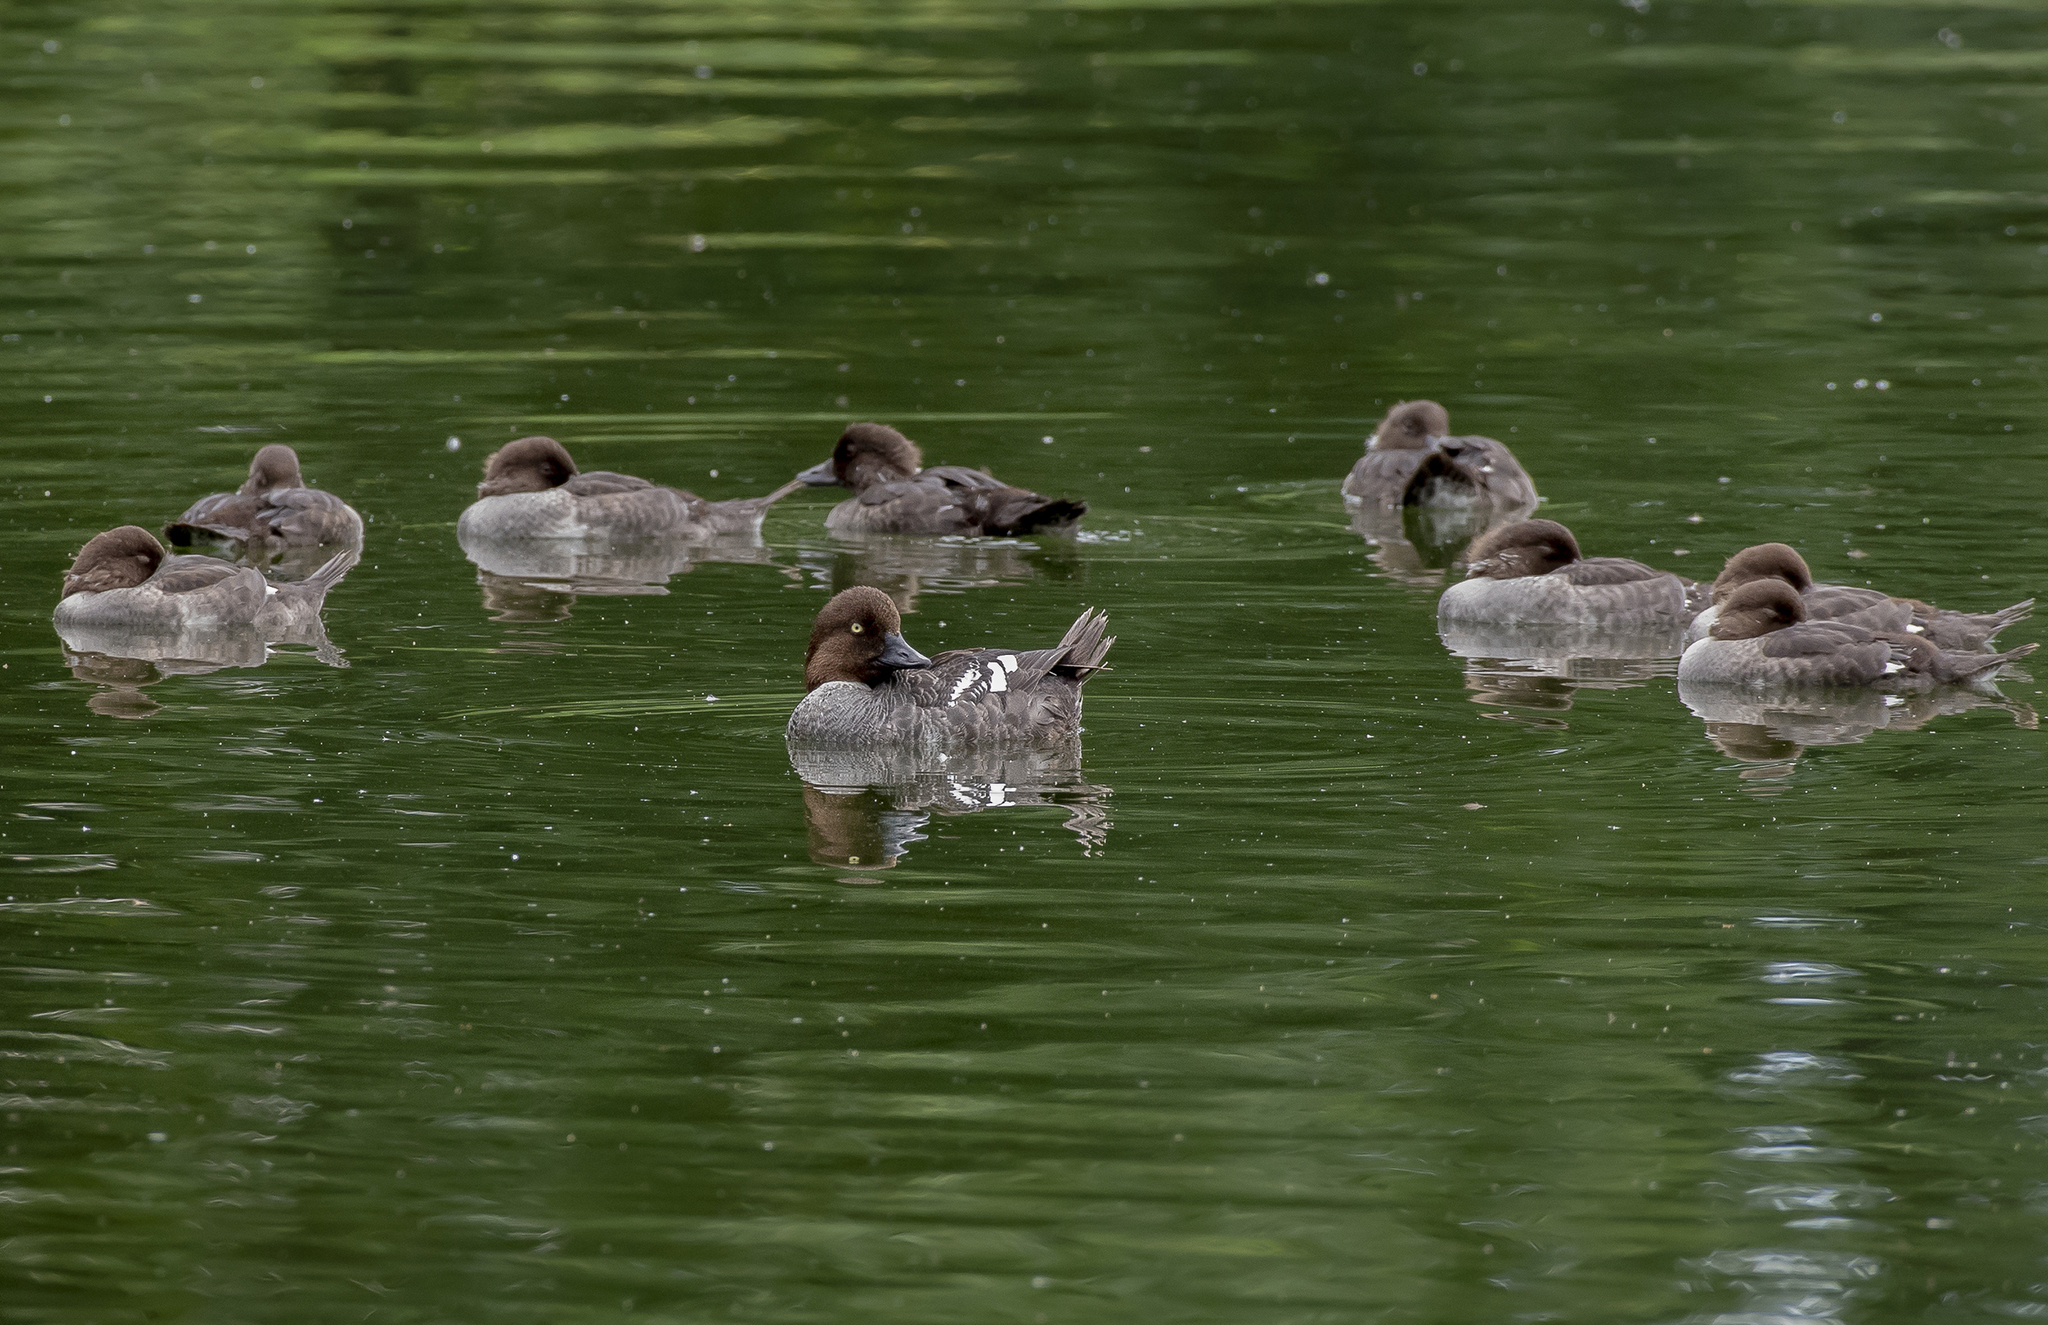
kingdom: Animalia
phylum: Chordata
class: Aves
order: Anseriformes
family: Anatidae
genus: Bucephala
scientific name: Bucephala clangula
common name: Common goldeneye
